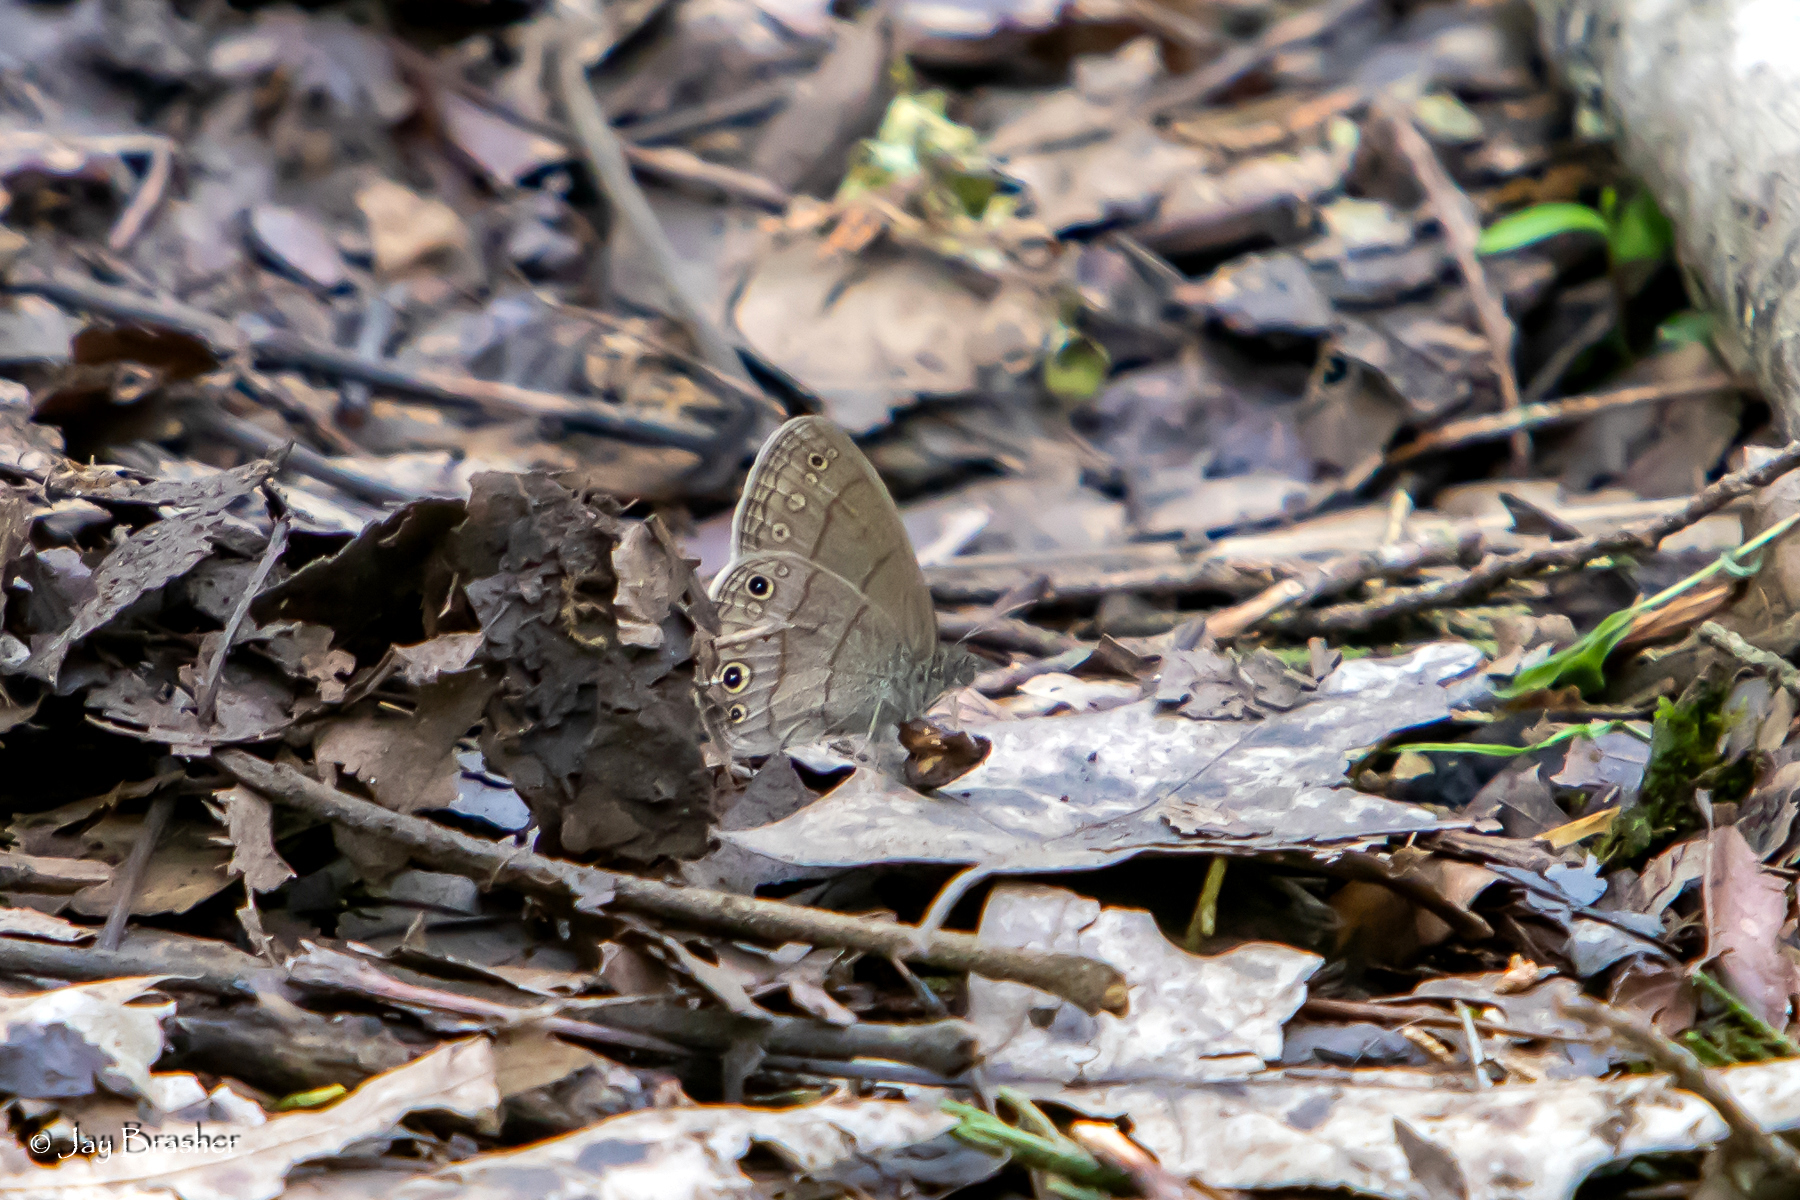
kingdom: Animalia
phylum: Arthropoda
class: Insecta
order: Lepidoptera
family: Nymphalidae
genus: Hermeuptychia
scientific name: Hermeuptychia hermes
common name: Hermes satyr
